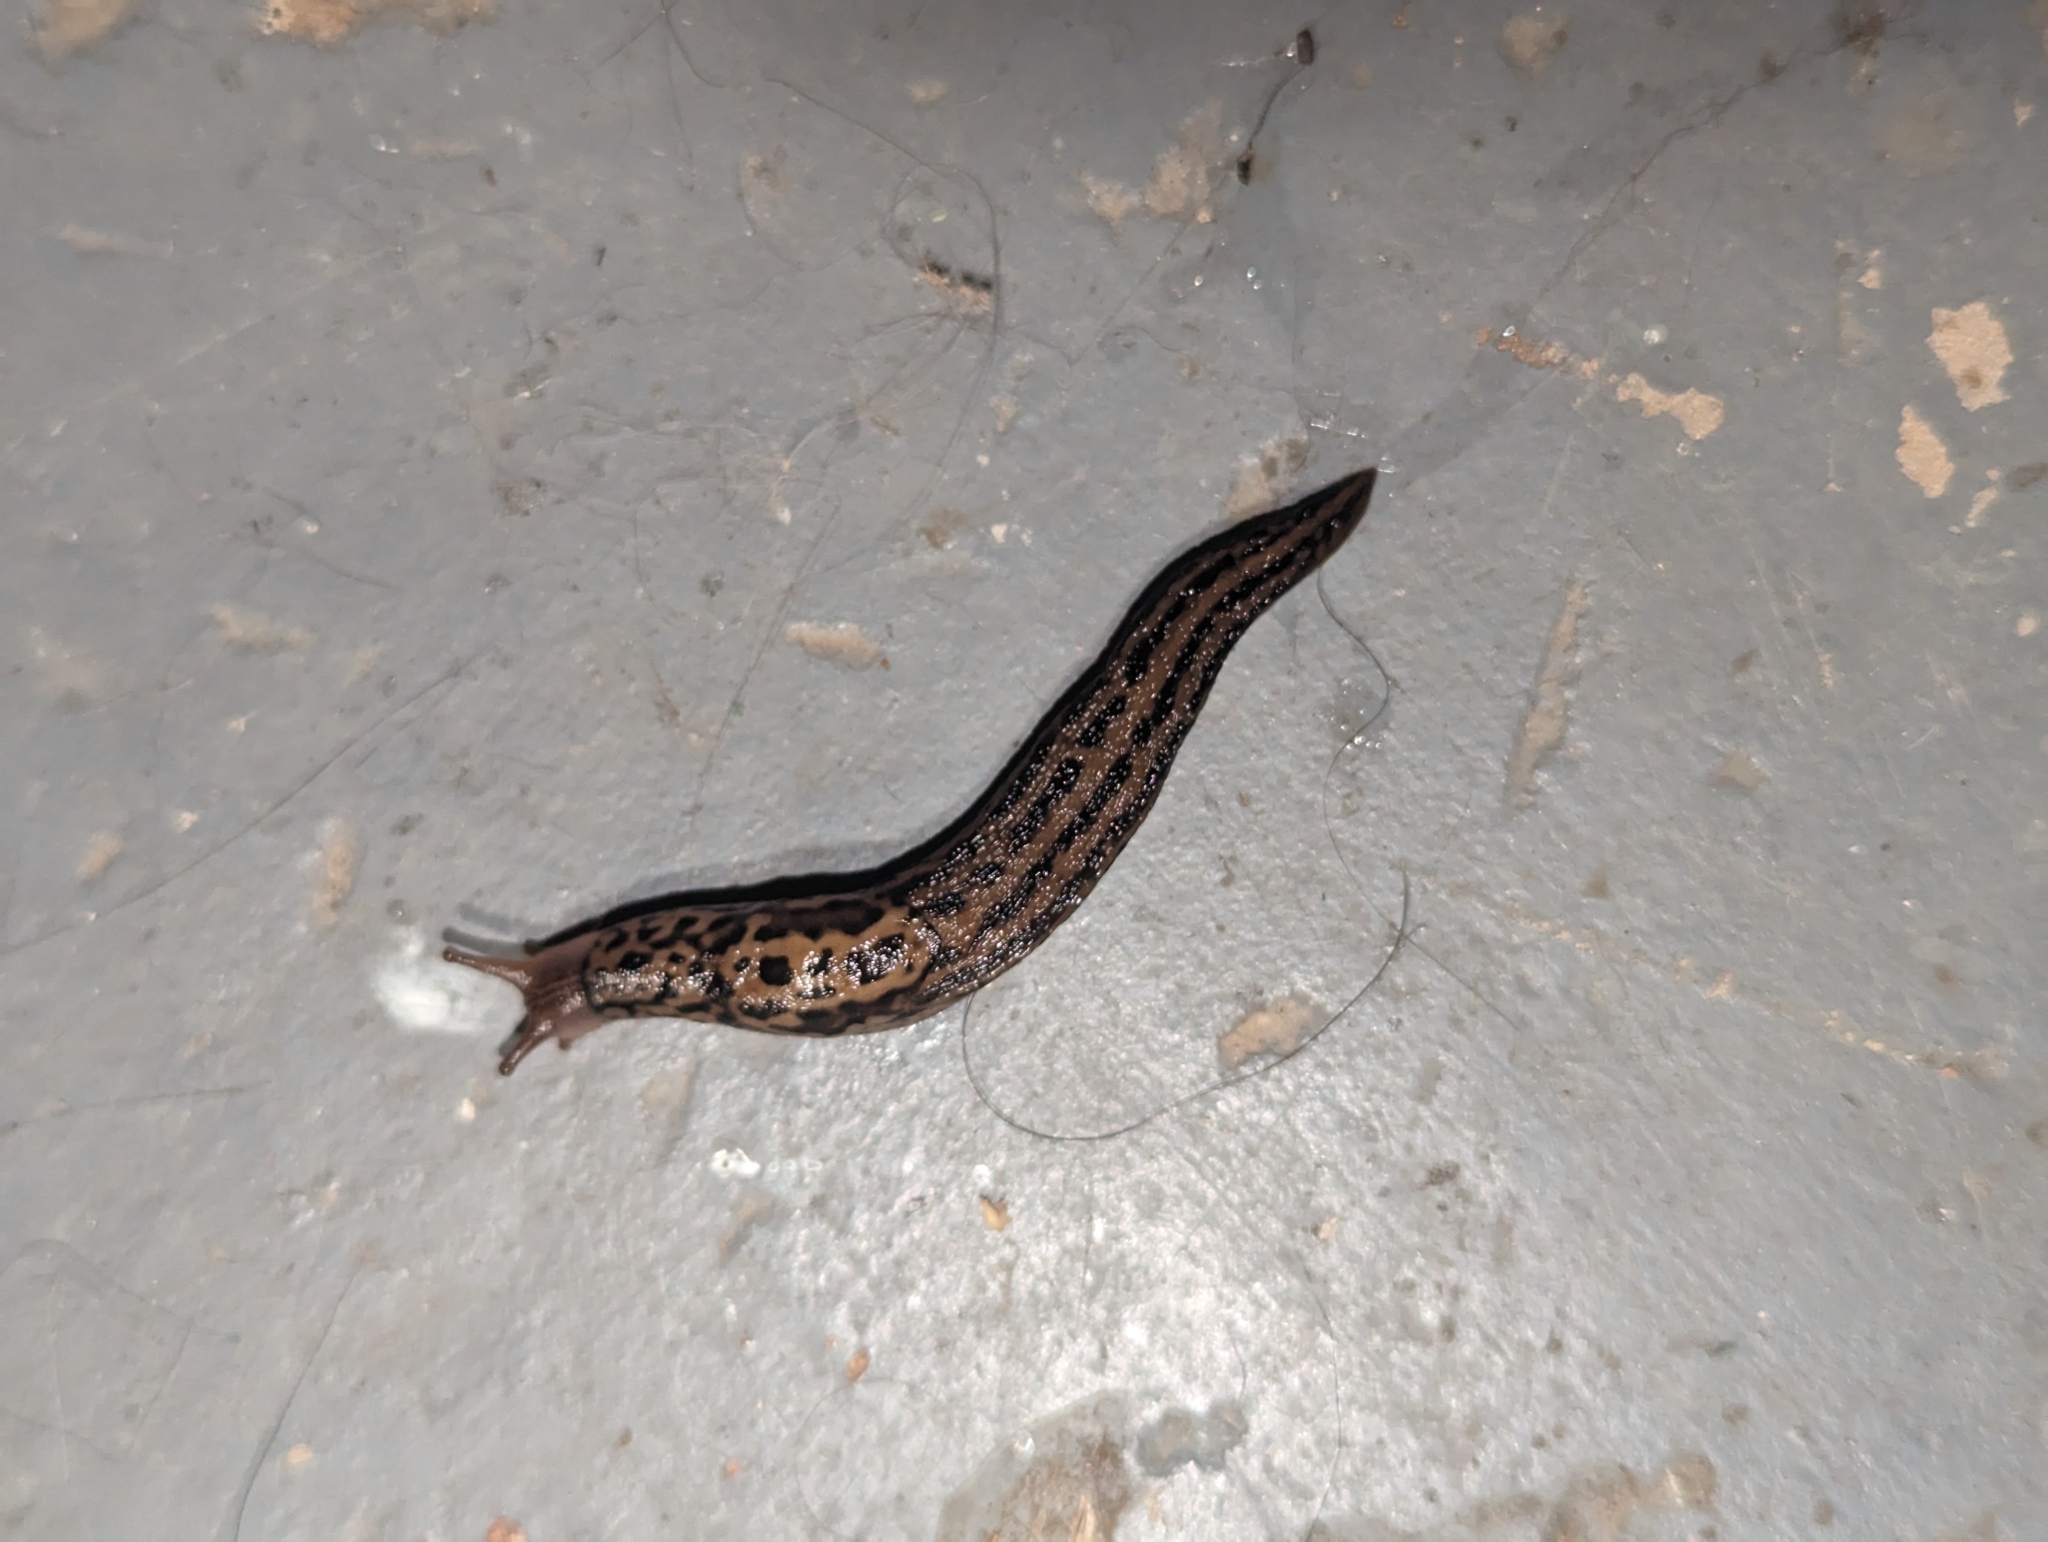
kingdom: Animalia
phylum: Mollusca
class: Gastropoda
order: Stylommatophora
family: Limacidae
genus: Limax
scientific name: Limax maximus
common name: Great grey slug
